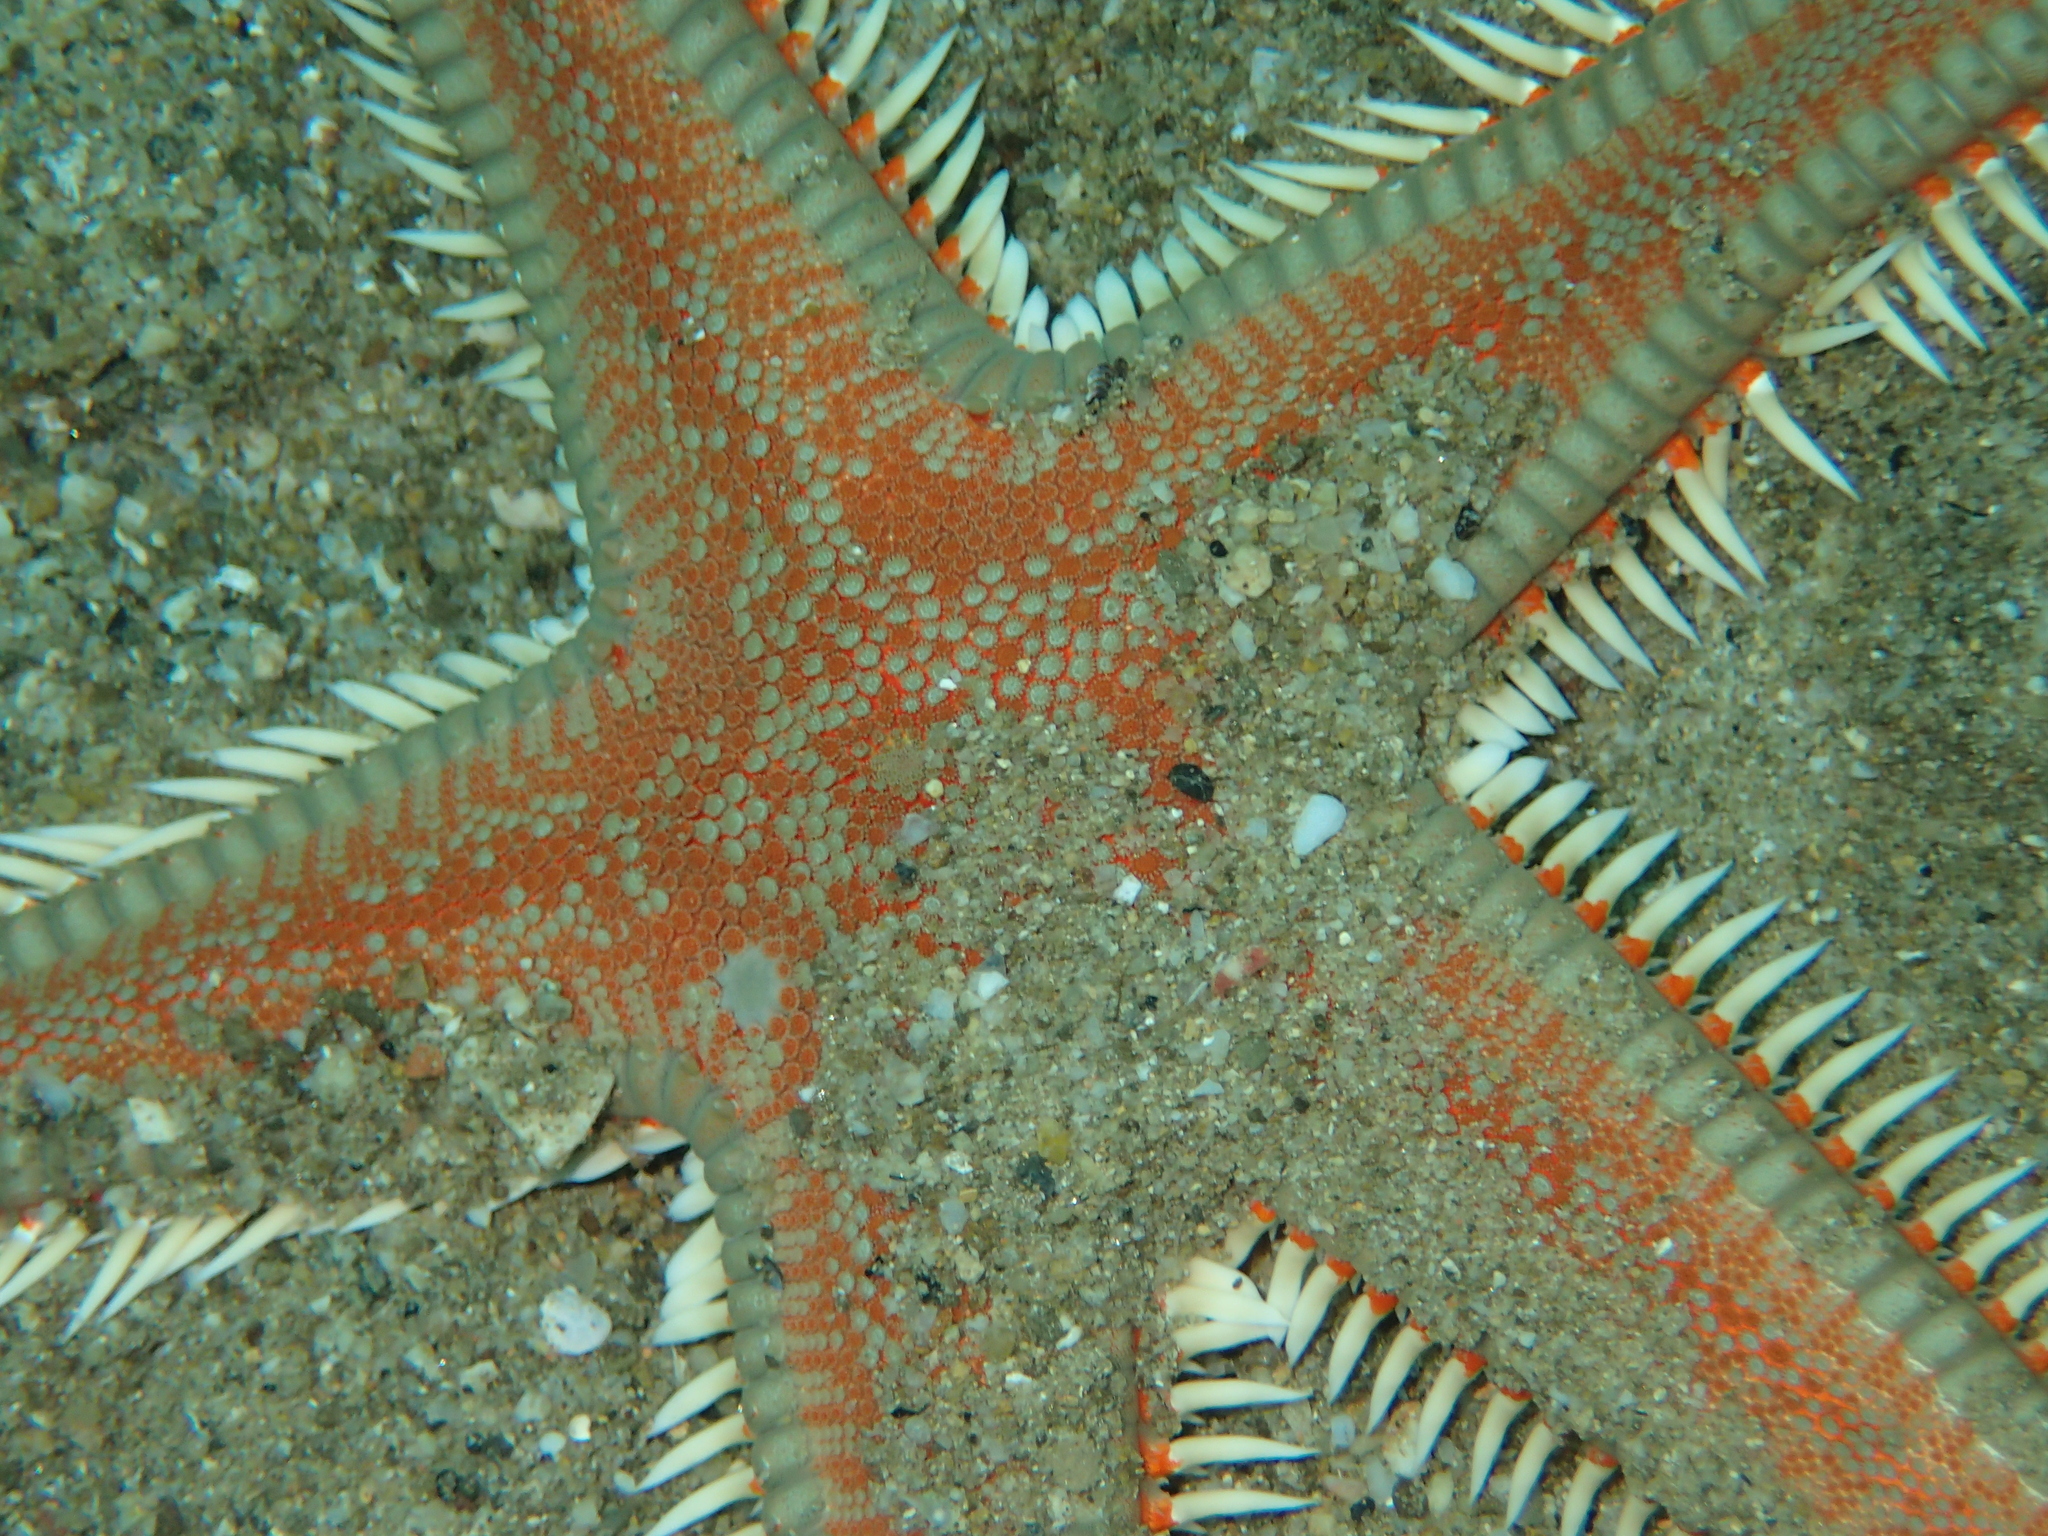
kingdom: Animalia
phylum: Echinodermata
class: Asteroidea
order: Paxillosida
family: Astropectinidae
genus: Astropecten
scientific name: Astropecten aranciacus
